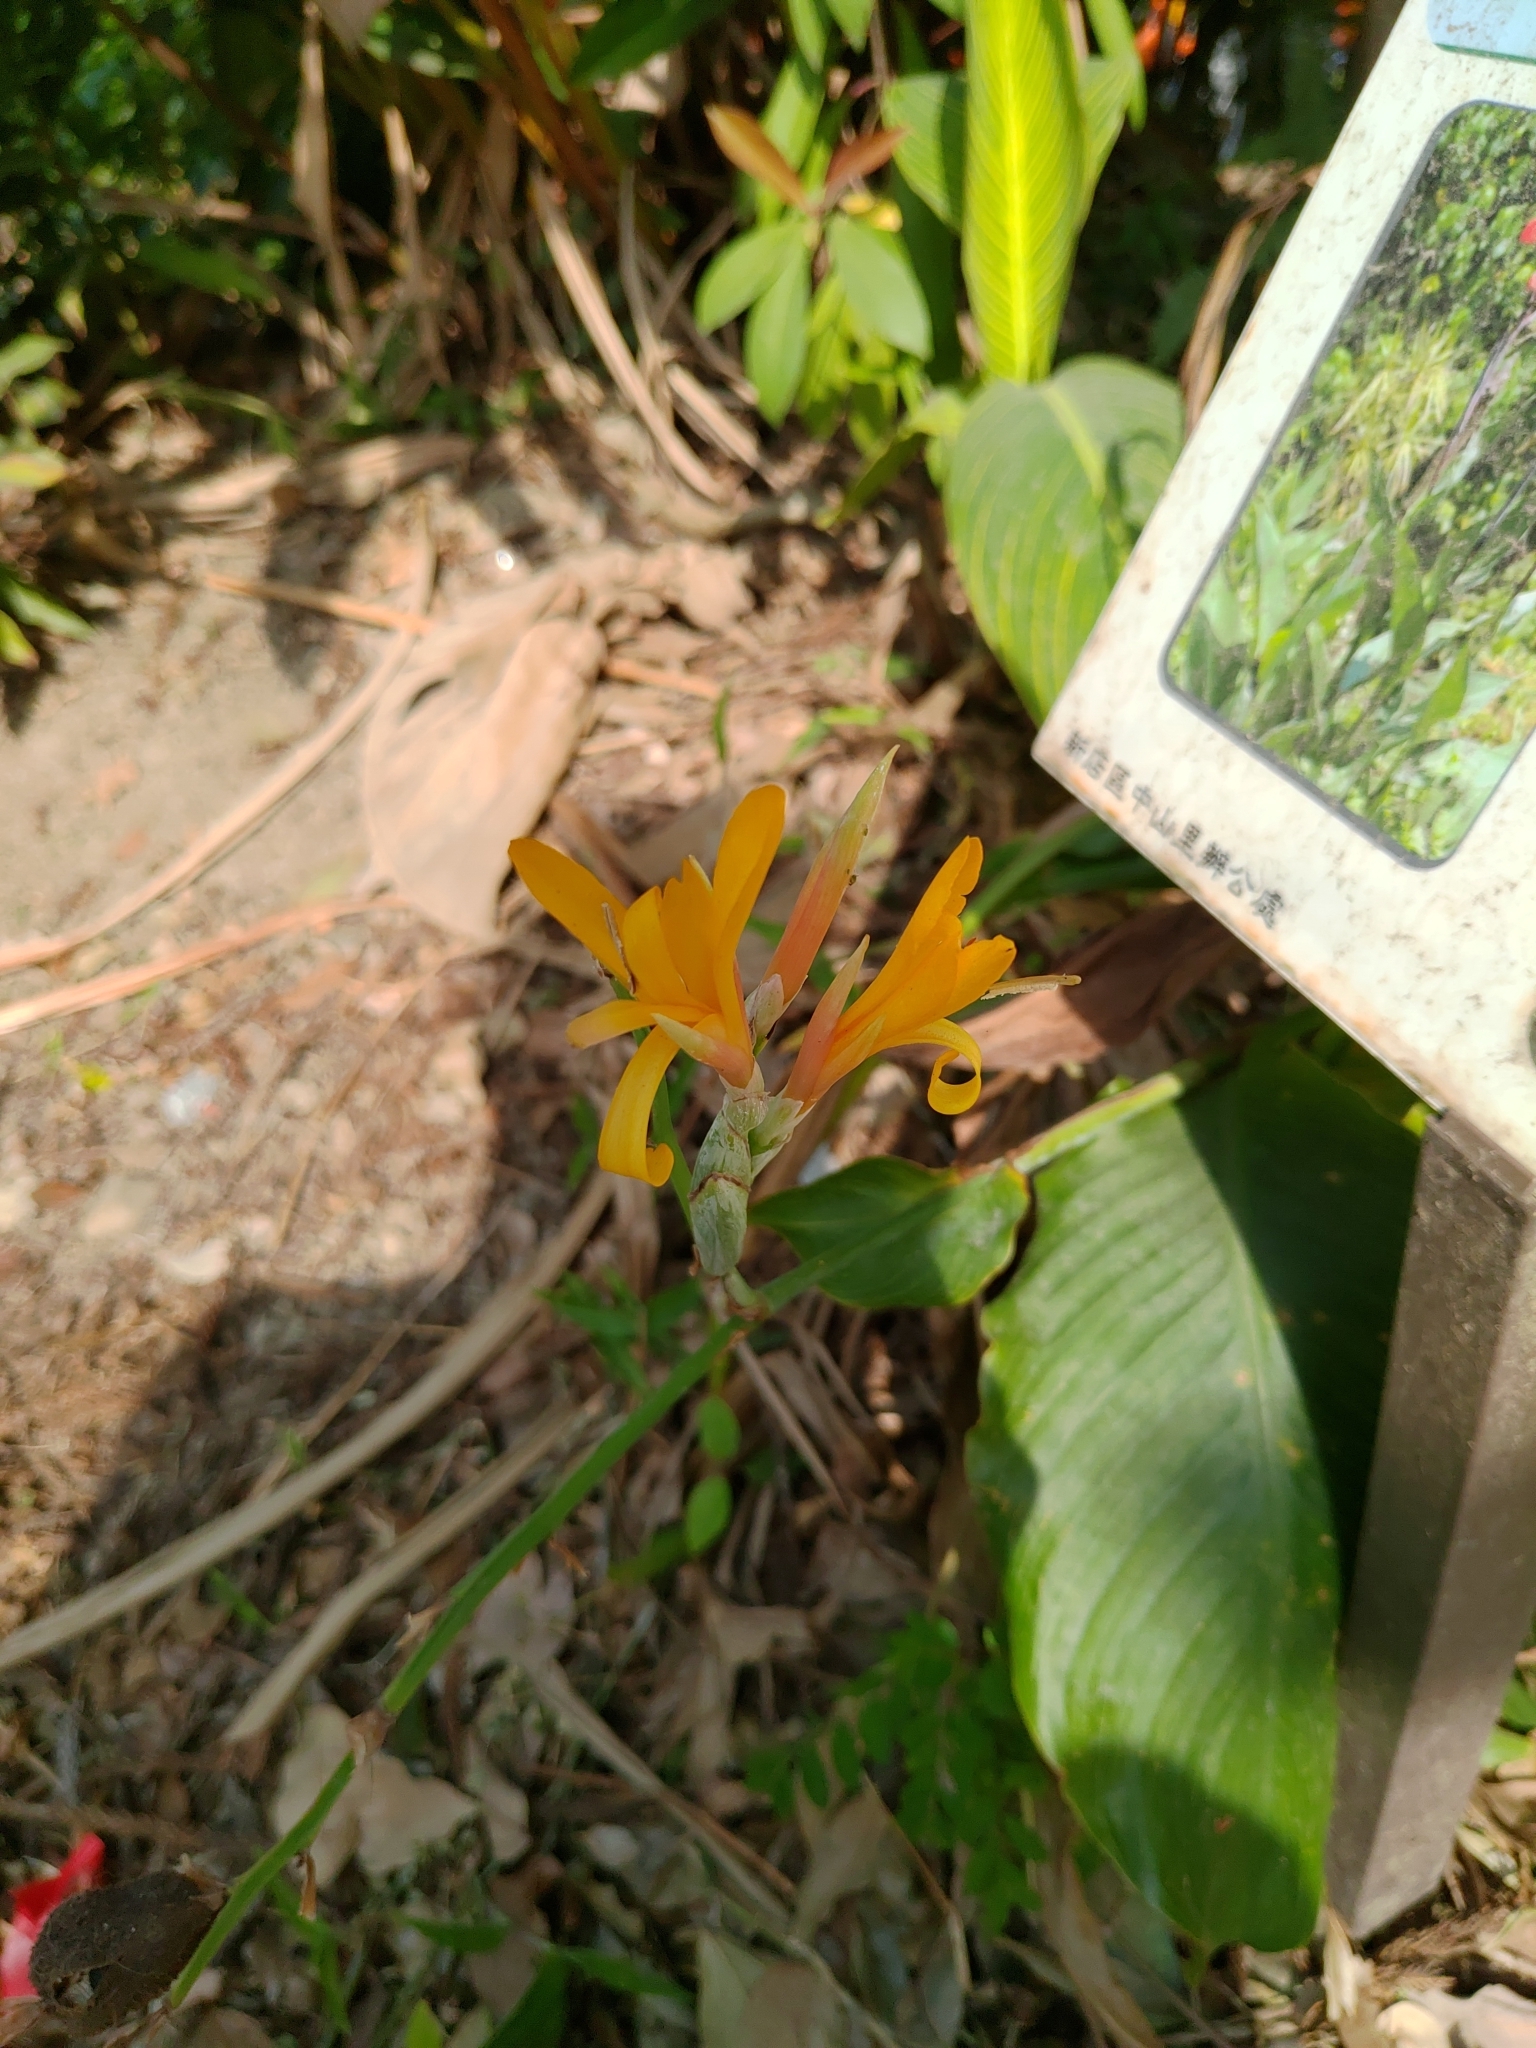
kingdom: Plantae
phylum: Tracheophyta
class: Liliopsida
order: Zingiberales
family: Cannaceae
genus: Canna
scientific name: Canna indica
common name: Indian shot
